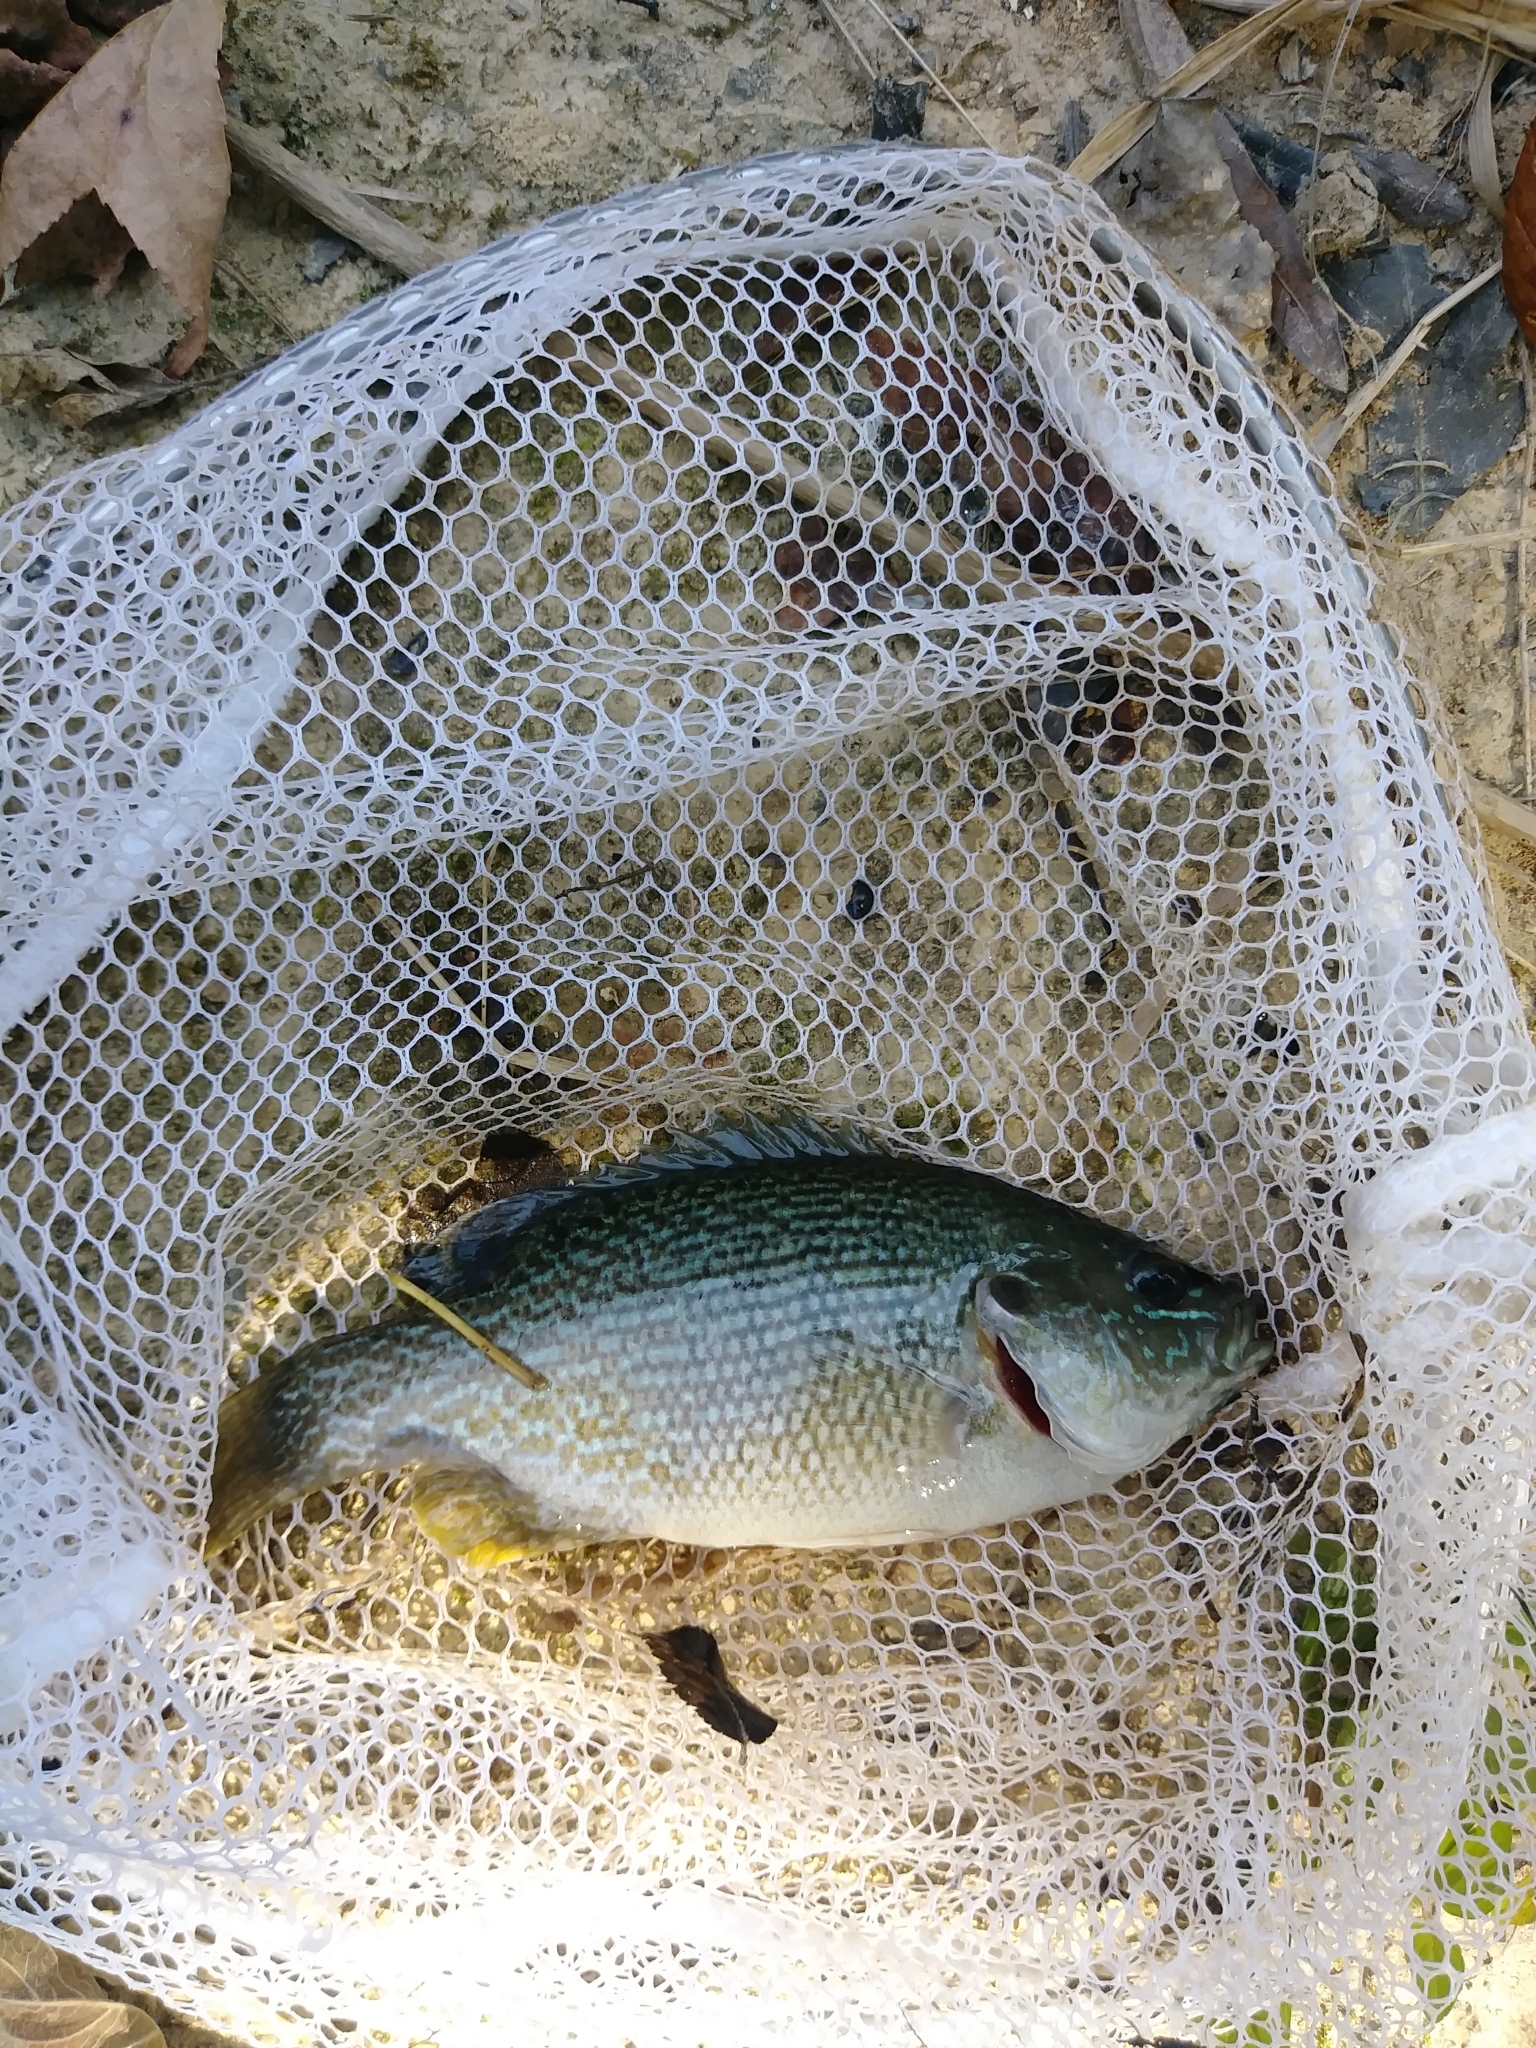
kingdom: Animalia
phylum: Chordata
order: Perciformes
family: Centrarchidae
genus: Lepomis
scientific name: Lepomis cyanellus
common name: Green sunfish
